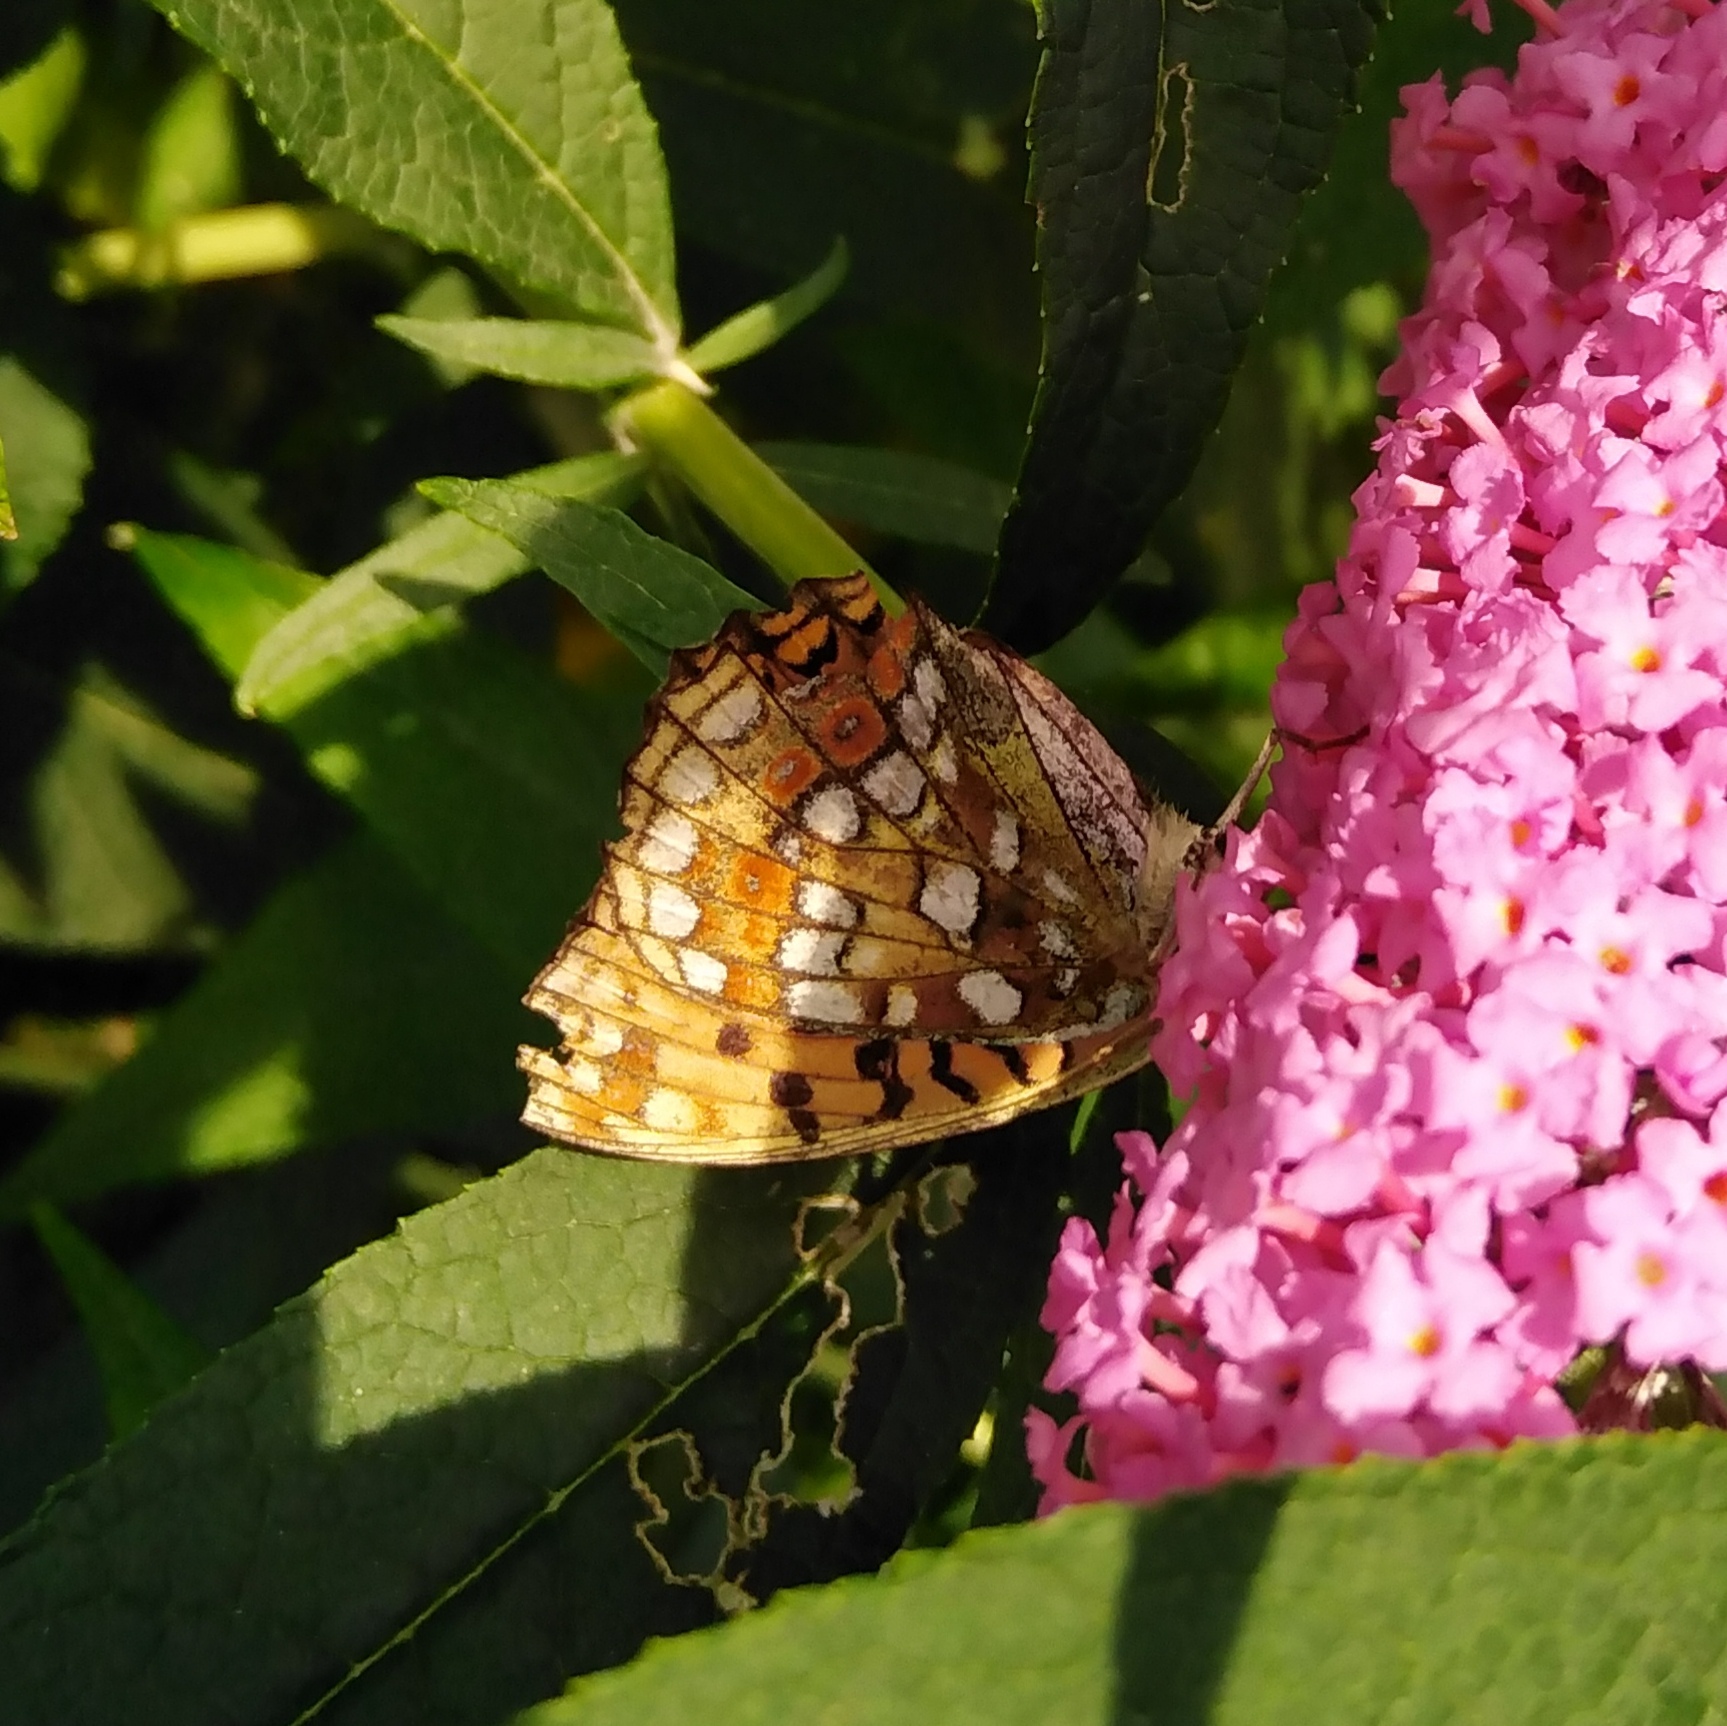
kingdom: Animalia
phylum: Arthropoda
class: Insecta
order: Lepidoptera
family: Nymphalidae
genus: Fabriciana
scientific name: Fabriciana adippe
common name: High brown fritillary
